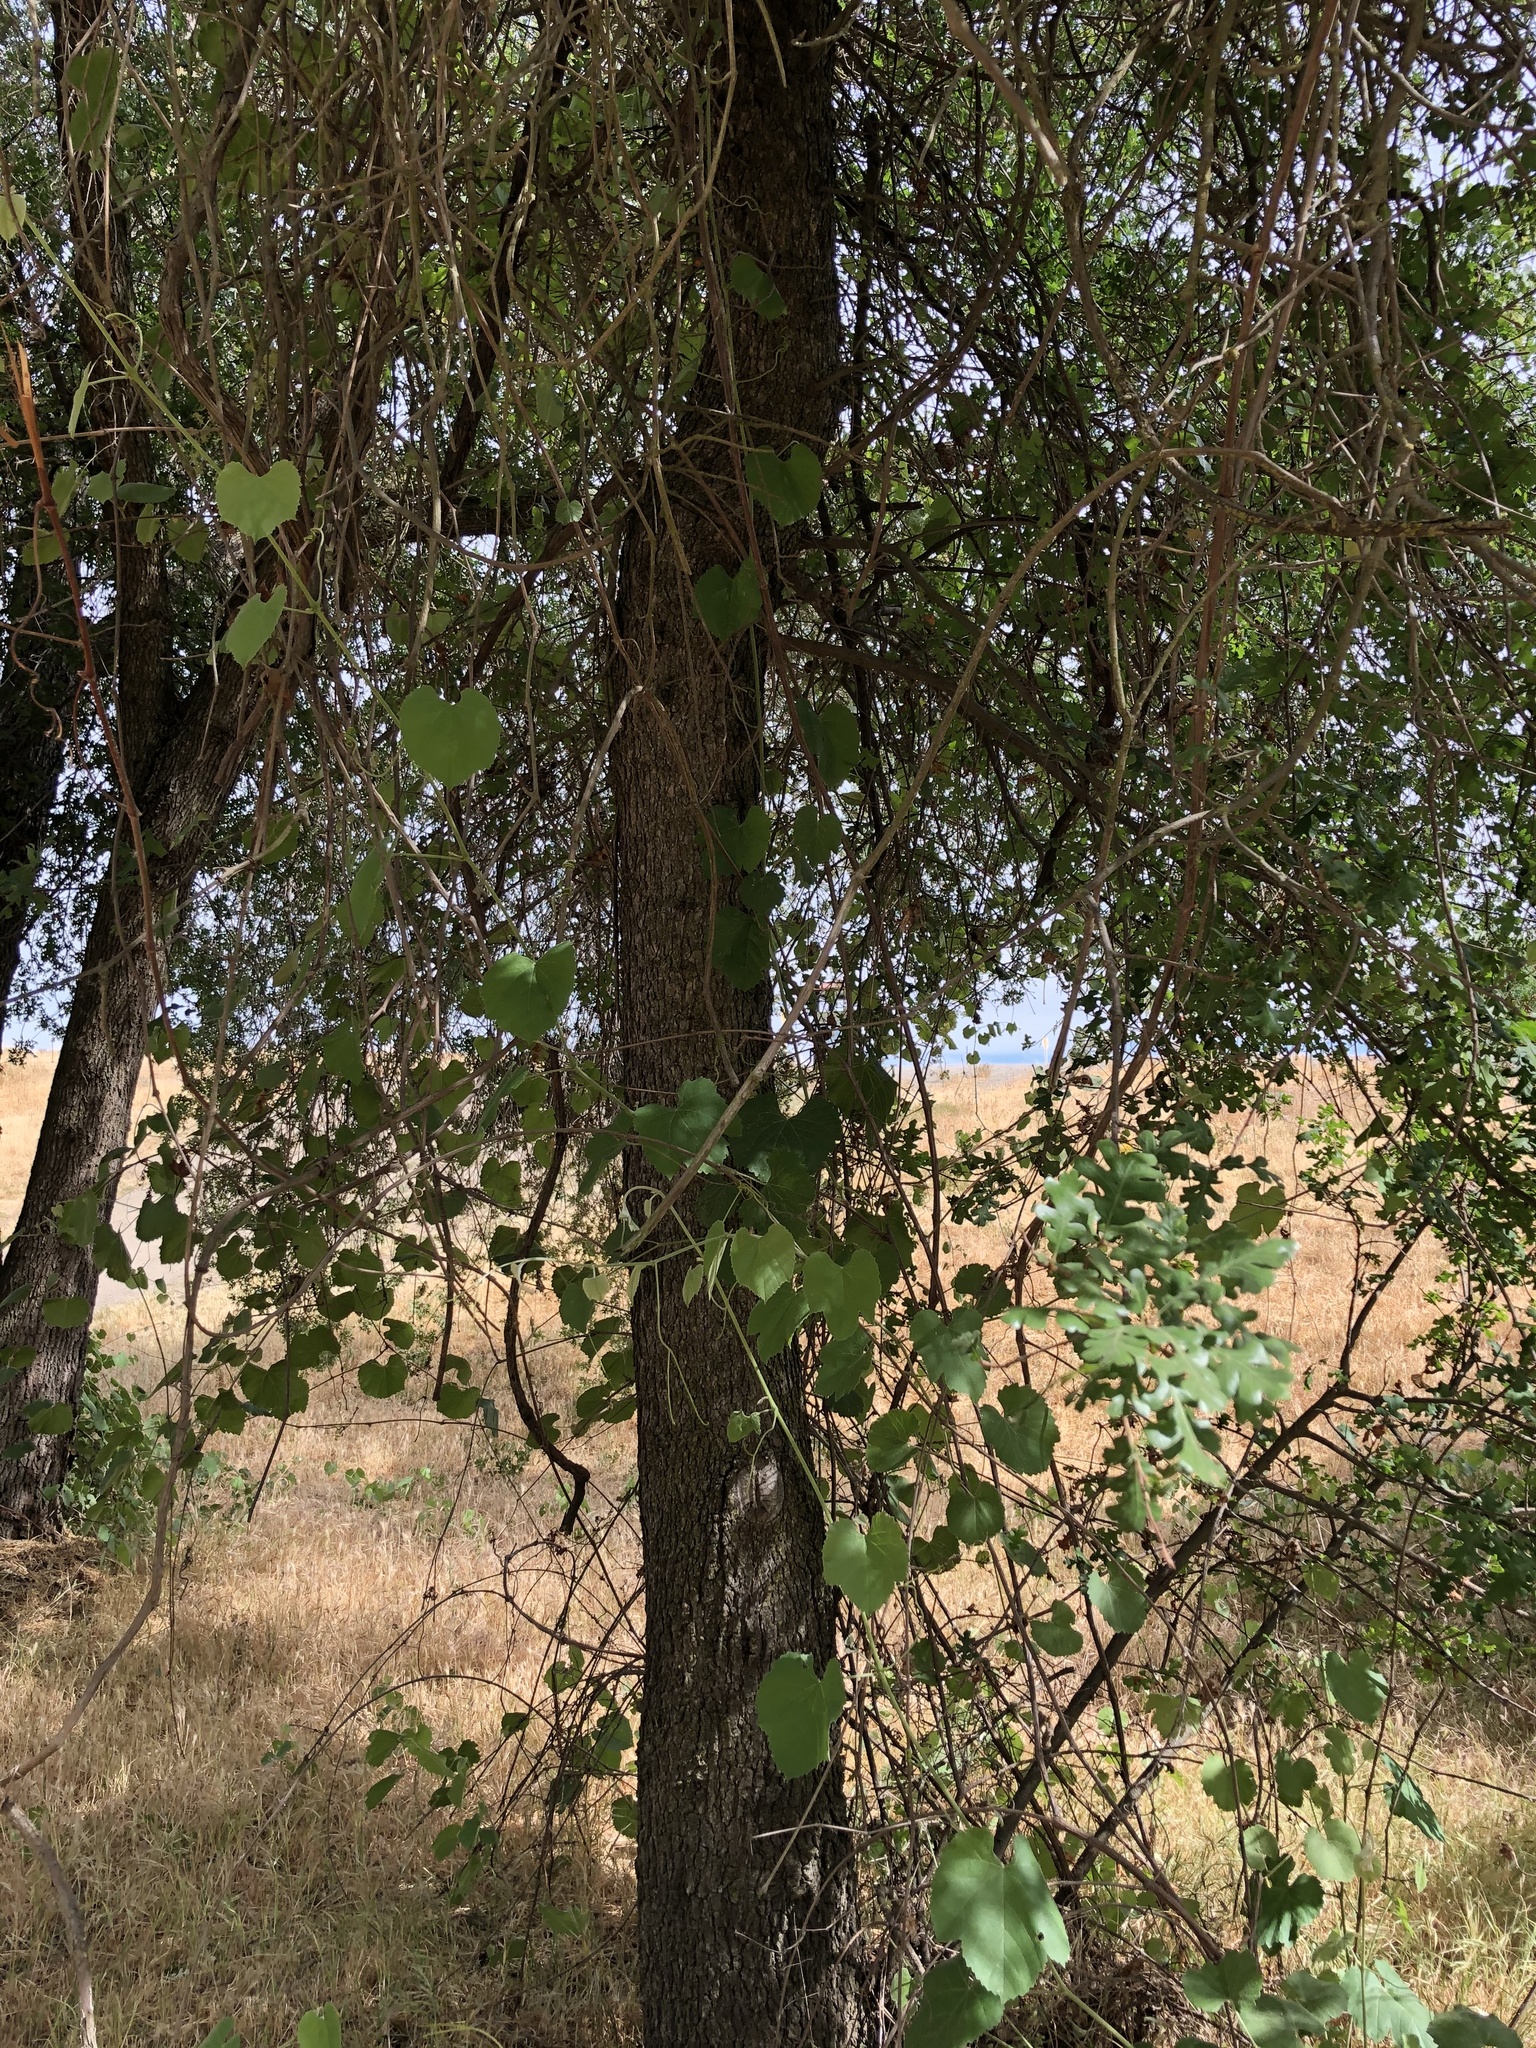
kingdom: Plantae
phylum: Tracheophyta
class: Magnoliopsida
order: Fagales
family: Fagaceae
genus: Quercus
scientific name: Quercus lobata
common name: Valley oak
